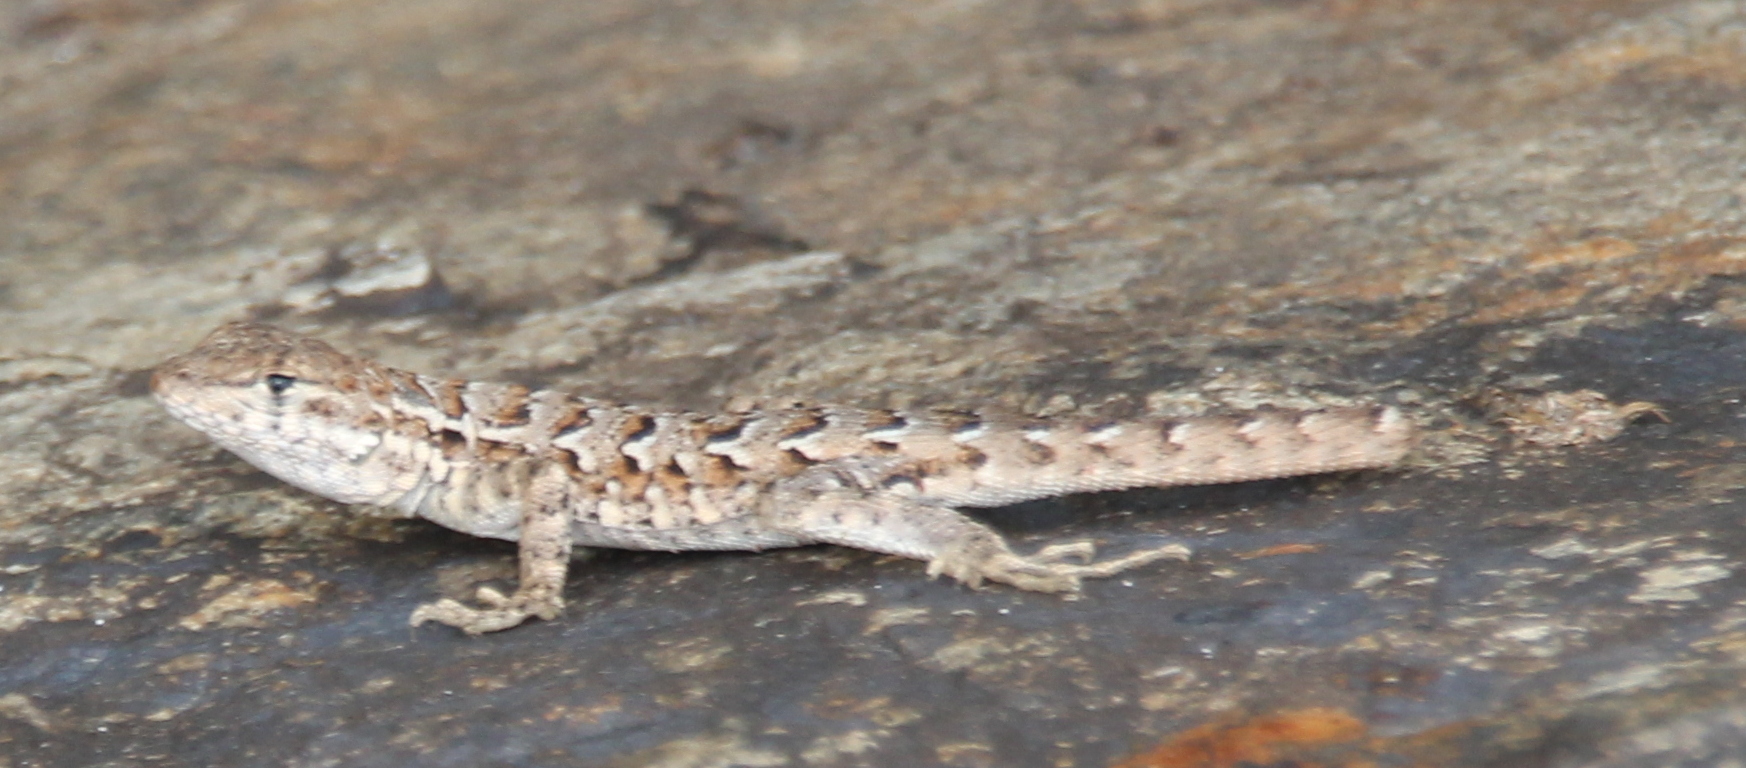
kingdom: Animalia
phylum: Chordata
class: Squamata
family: Phrynosomatidae
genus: Uta
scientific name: Uta stansburiana
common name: Side-blotched lizard
